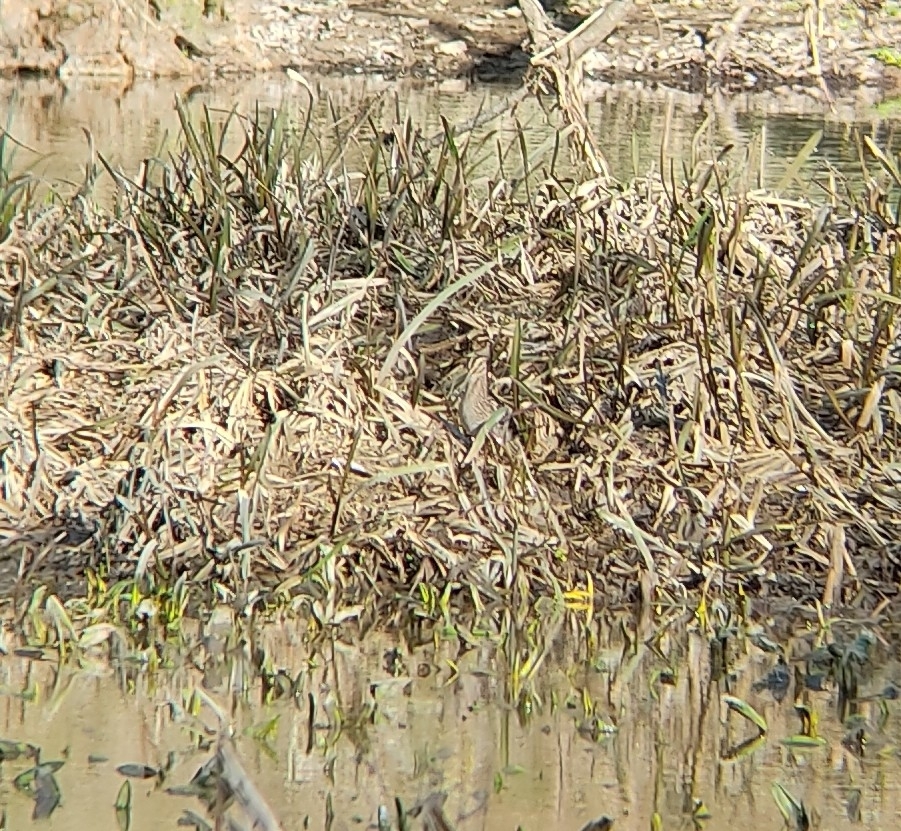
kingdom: Animalia
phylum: Chordata
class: Aves
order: Charadriiformes
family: Scolopacidae
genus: Gallinago
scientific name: Gallinago gallinago
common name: Common snipe
